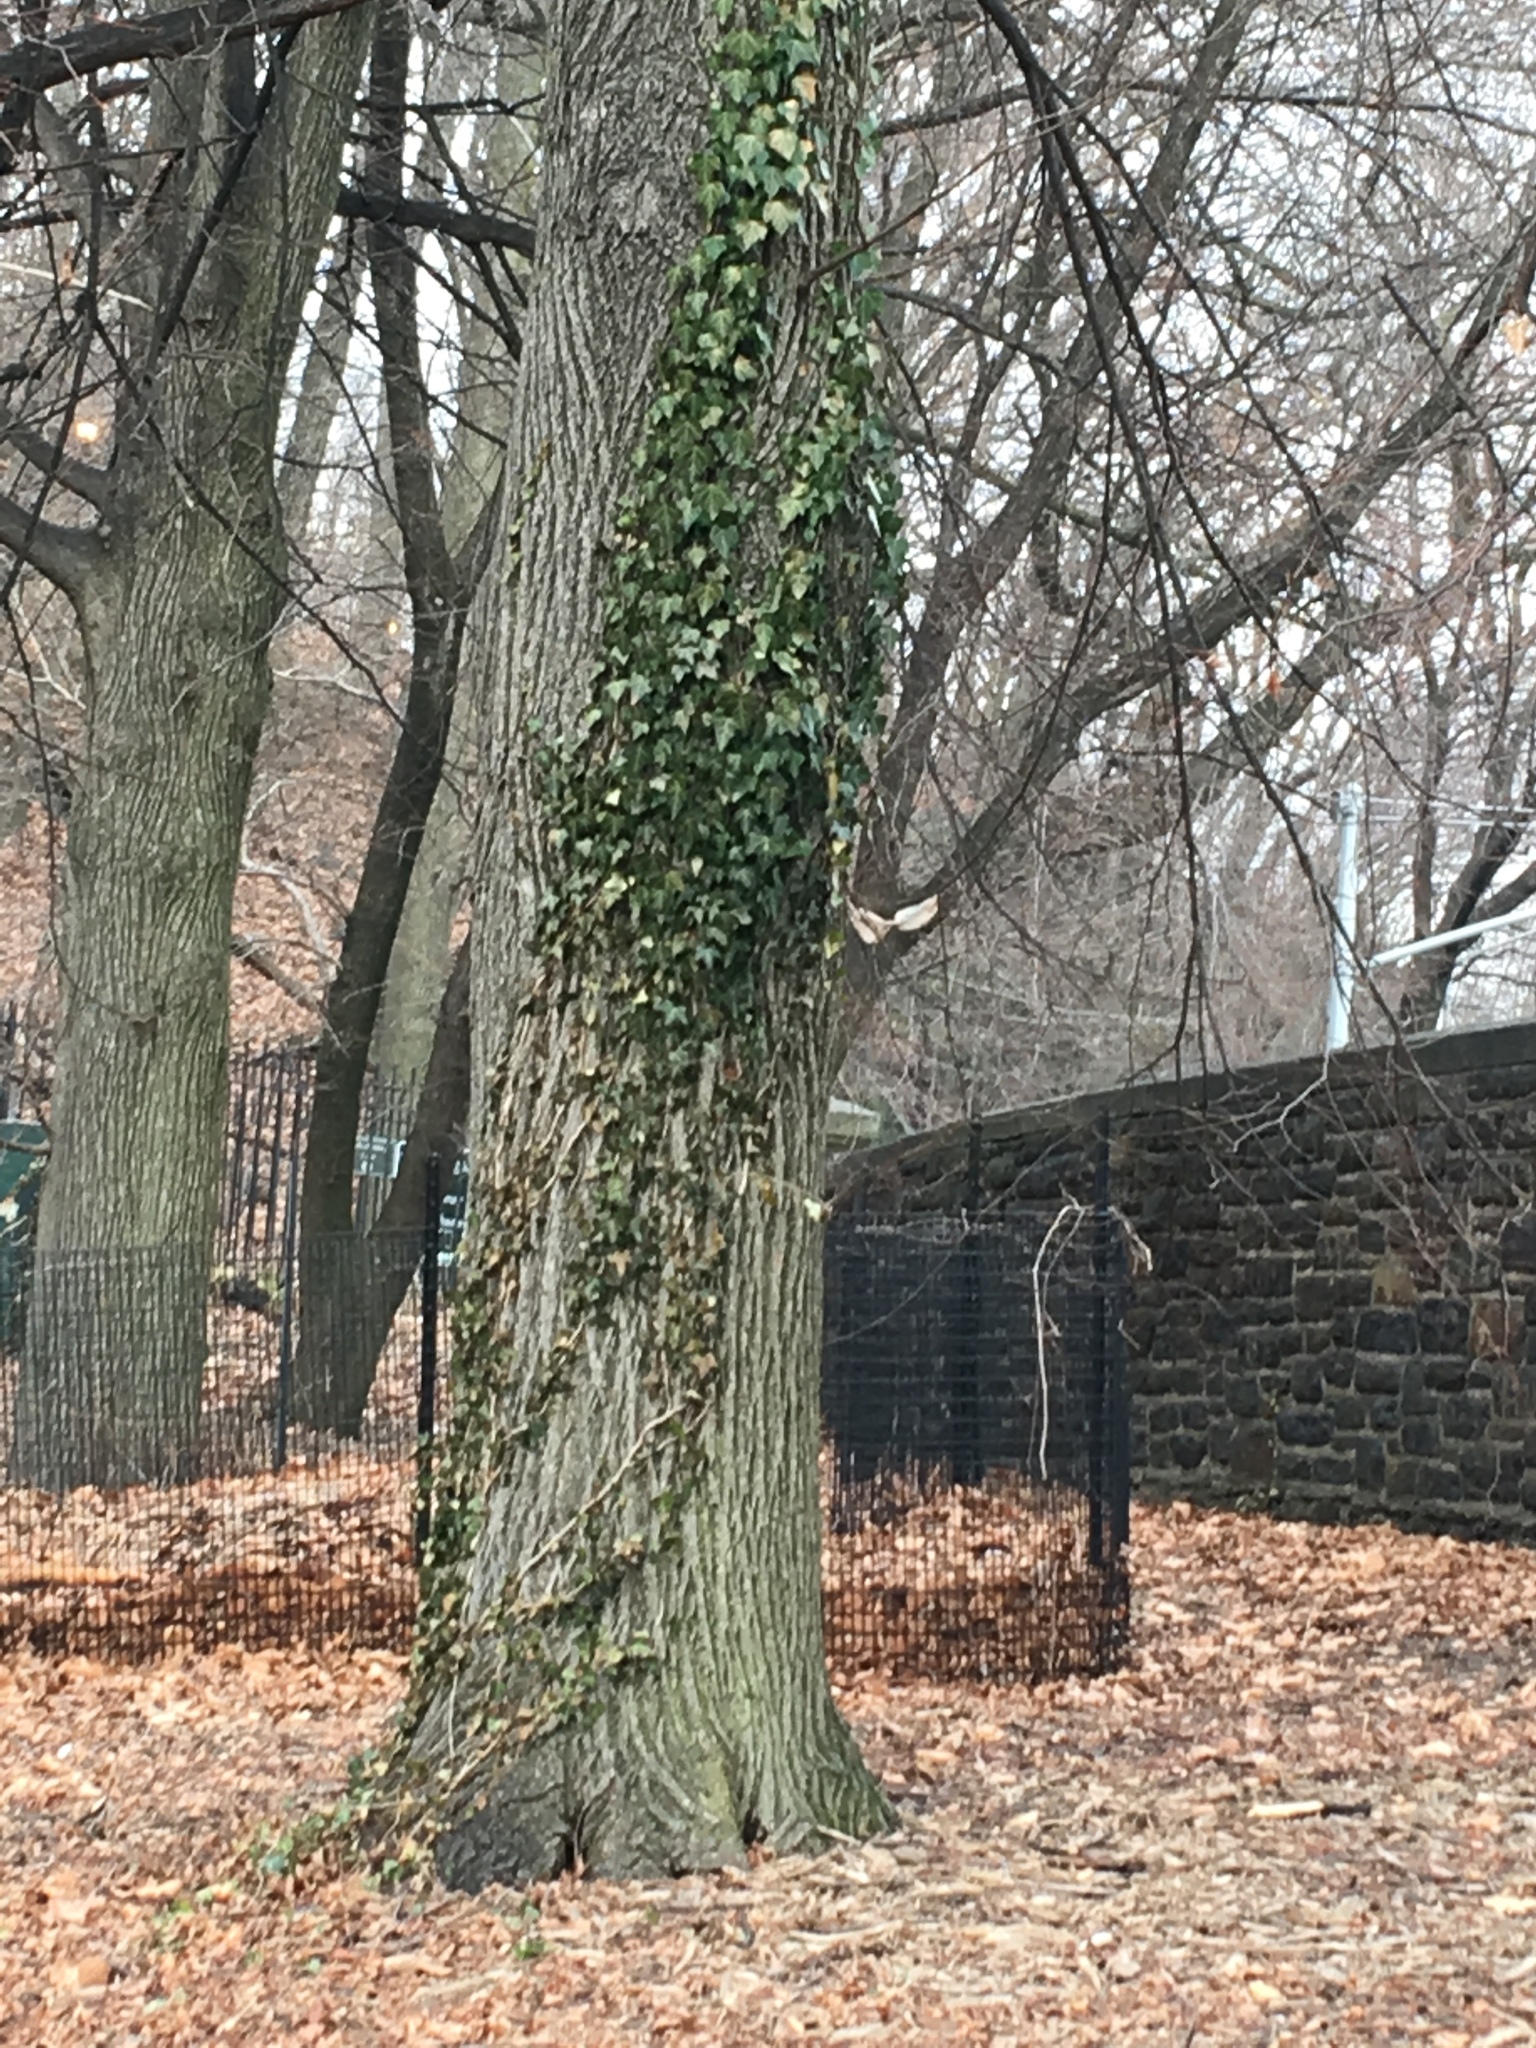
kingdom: Plantae
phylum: Tracheophyta
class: Magnoliopsida
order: Apiales
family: Araliaceae
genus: Hedera
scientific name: Hedera helix
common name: Ivy
